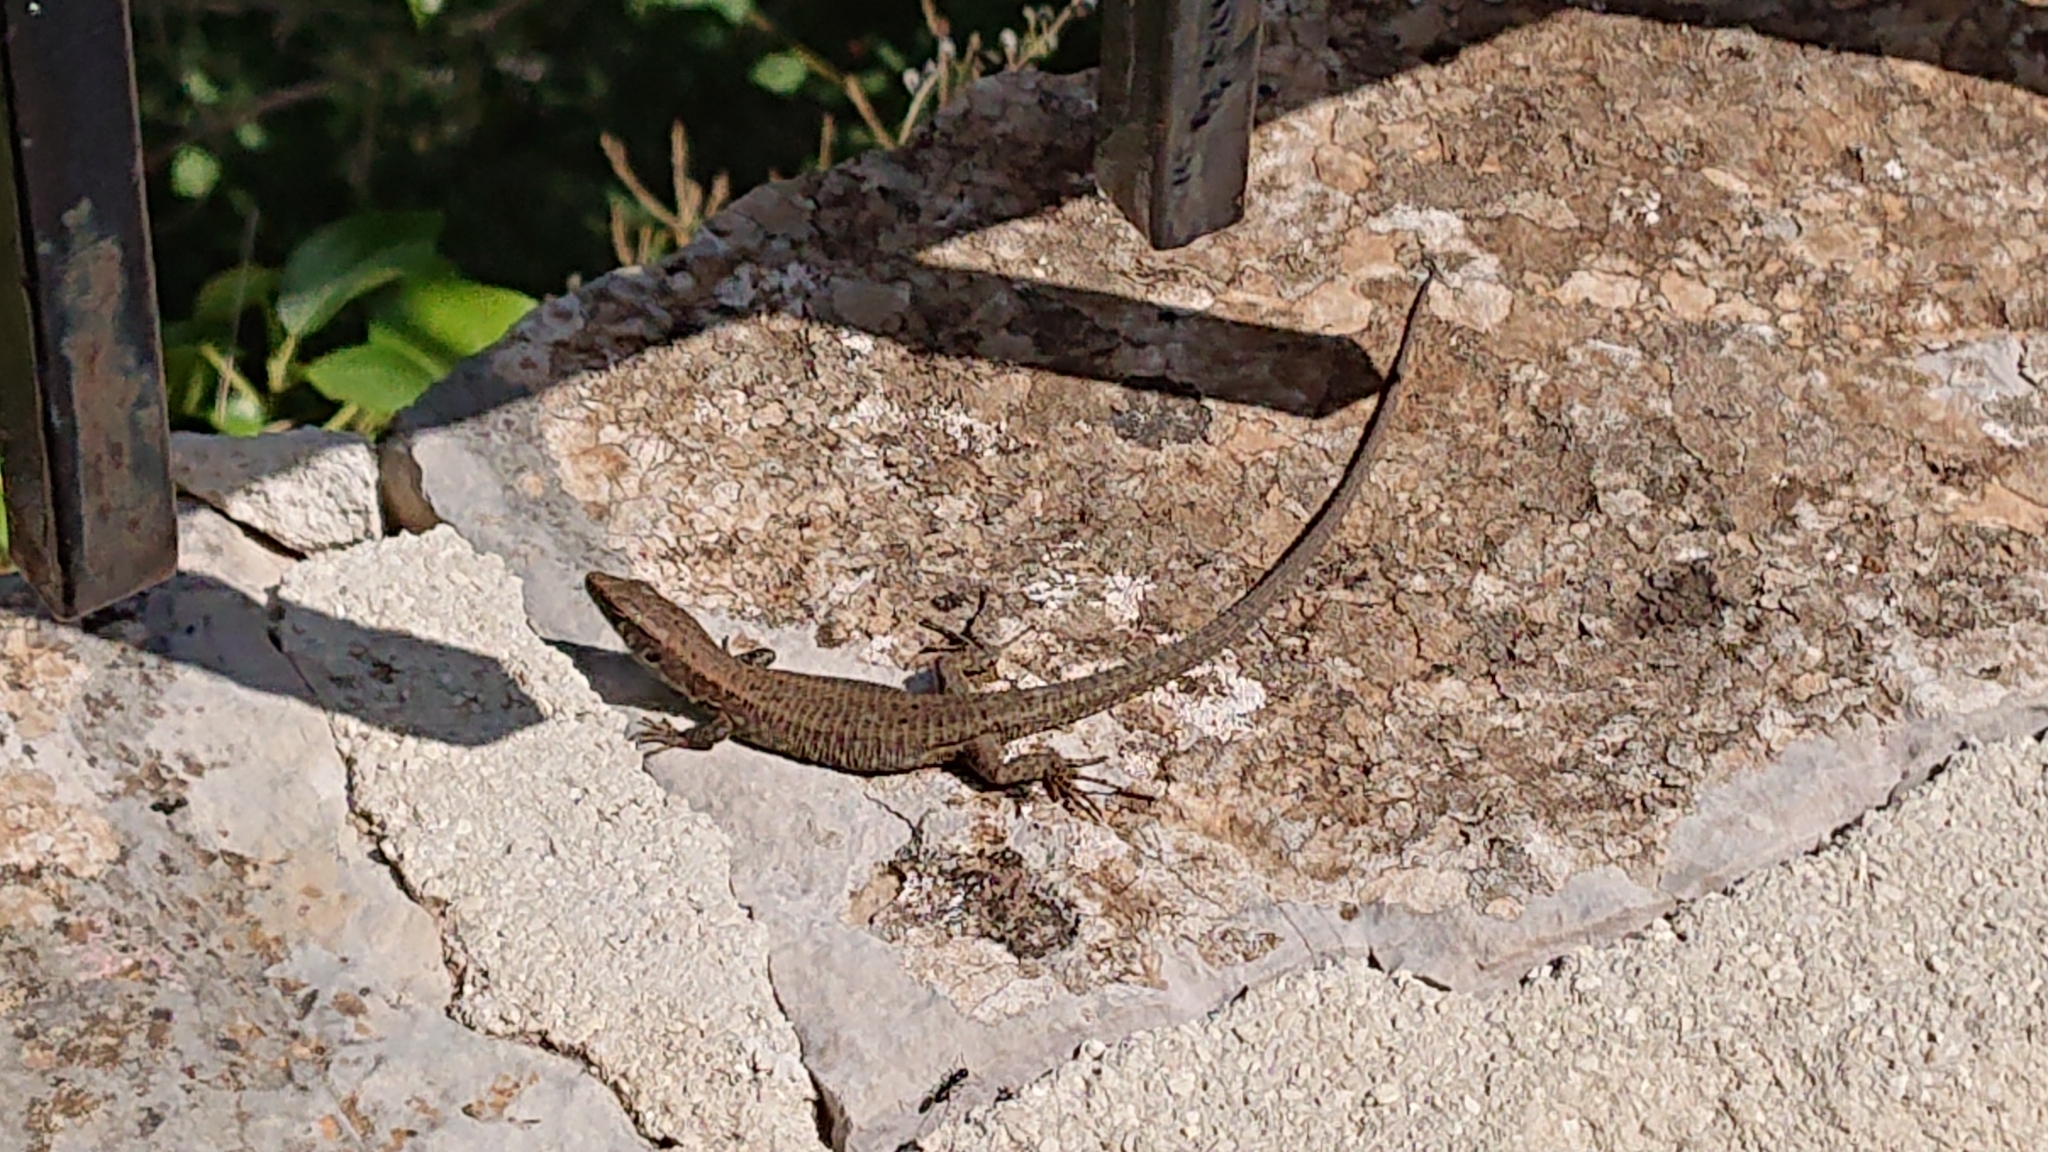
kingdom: Animalia
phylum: Chordata
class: Squamata
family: Lacertidae
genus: Algyroides
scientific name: Algyroides nigropunctatus
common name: Blue-throated keeled lizard
